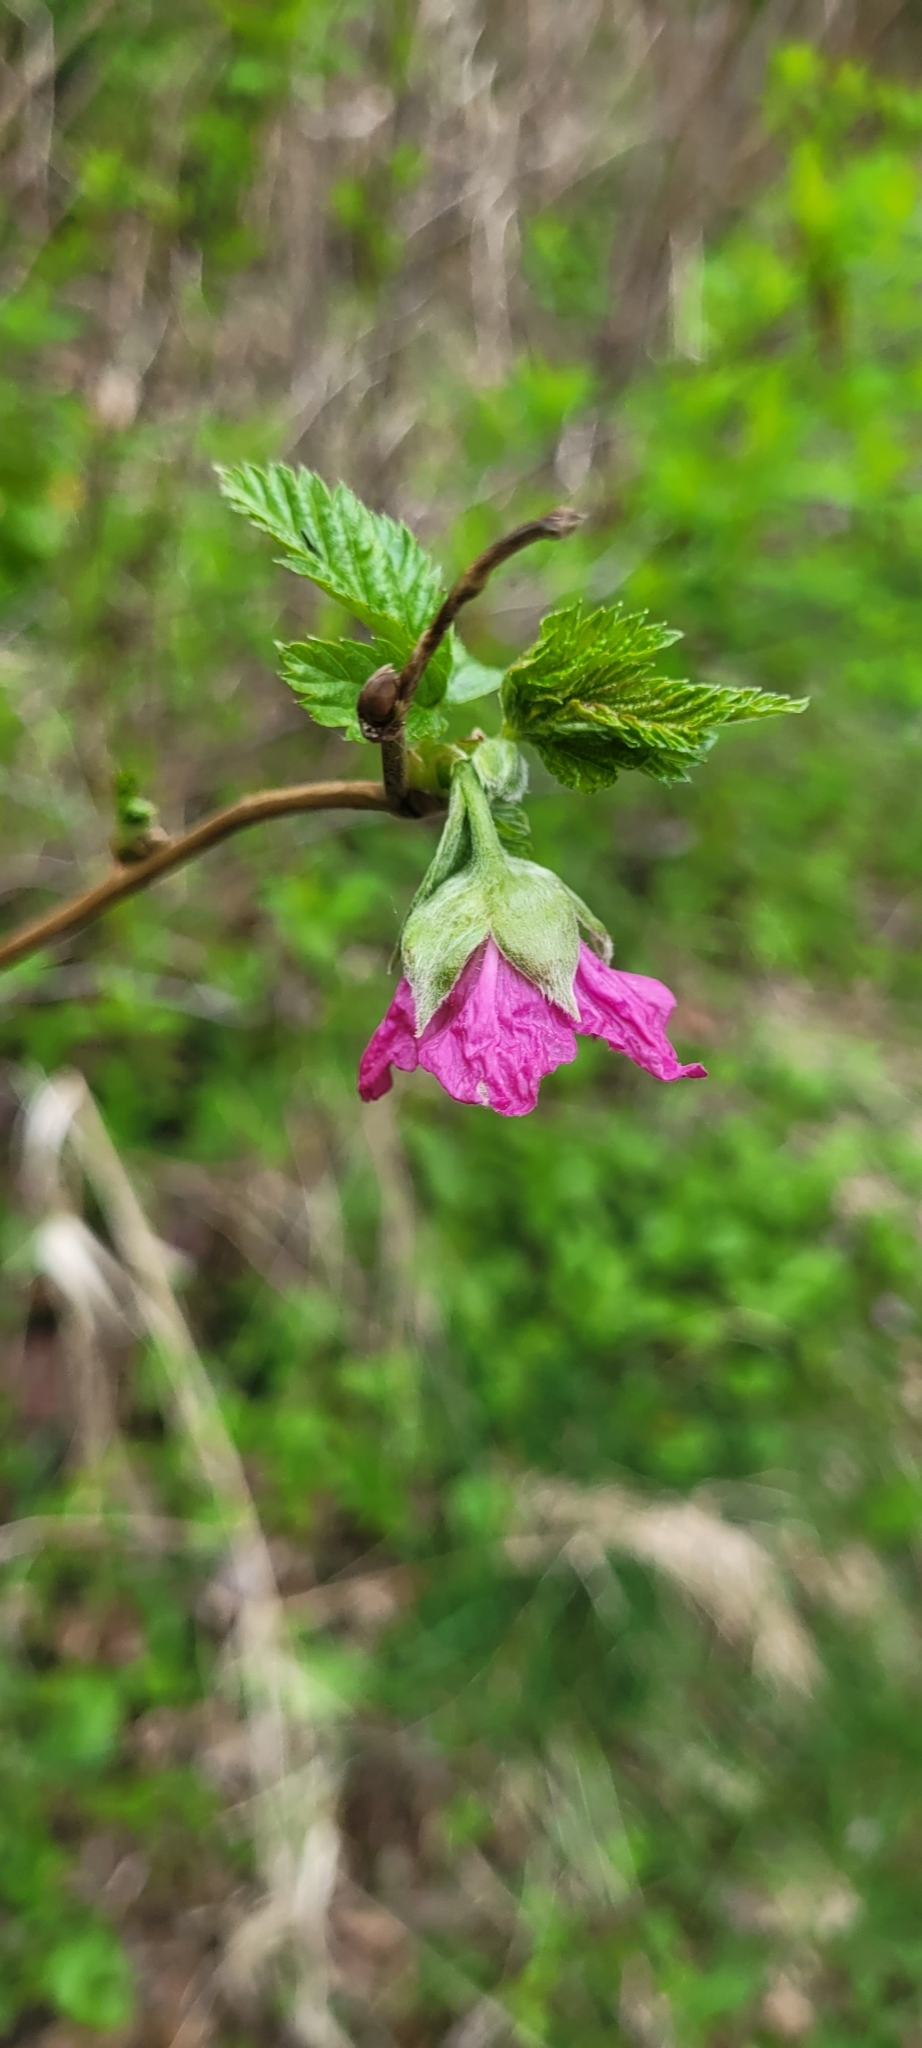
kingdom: Plantae
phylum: Tracheophyta
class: Magnoliopsida
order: Rosales
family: Rosaceae
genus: Rubus
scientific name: Rubus spectabilis
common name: Salmonberry
